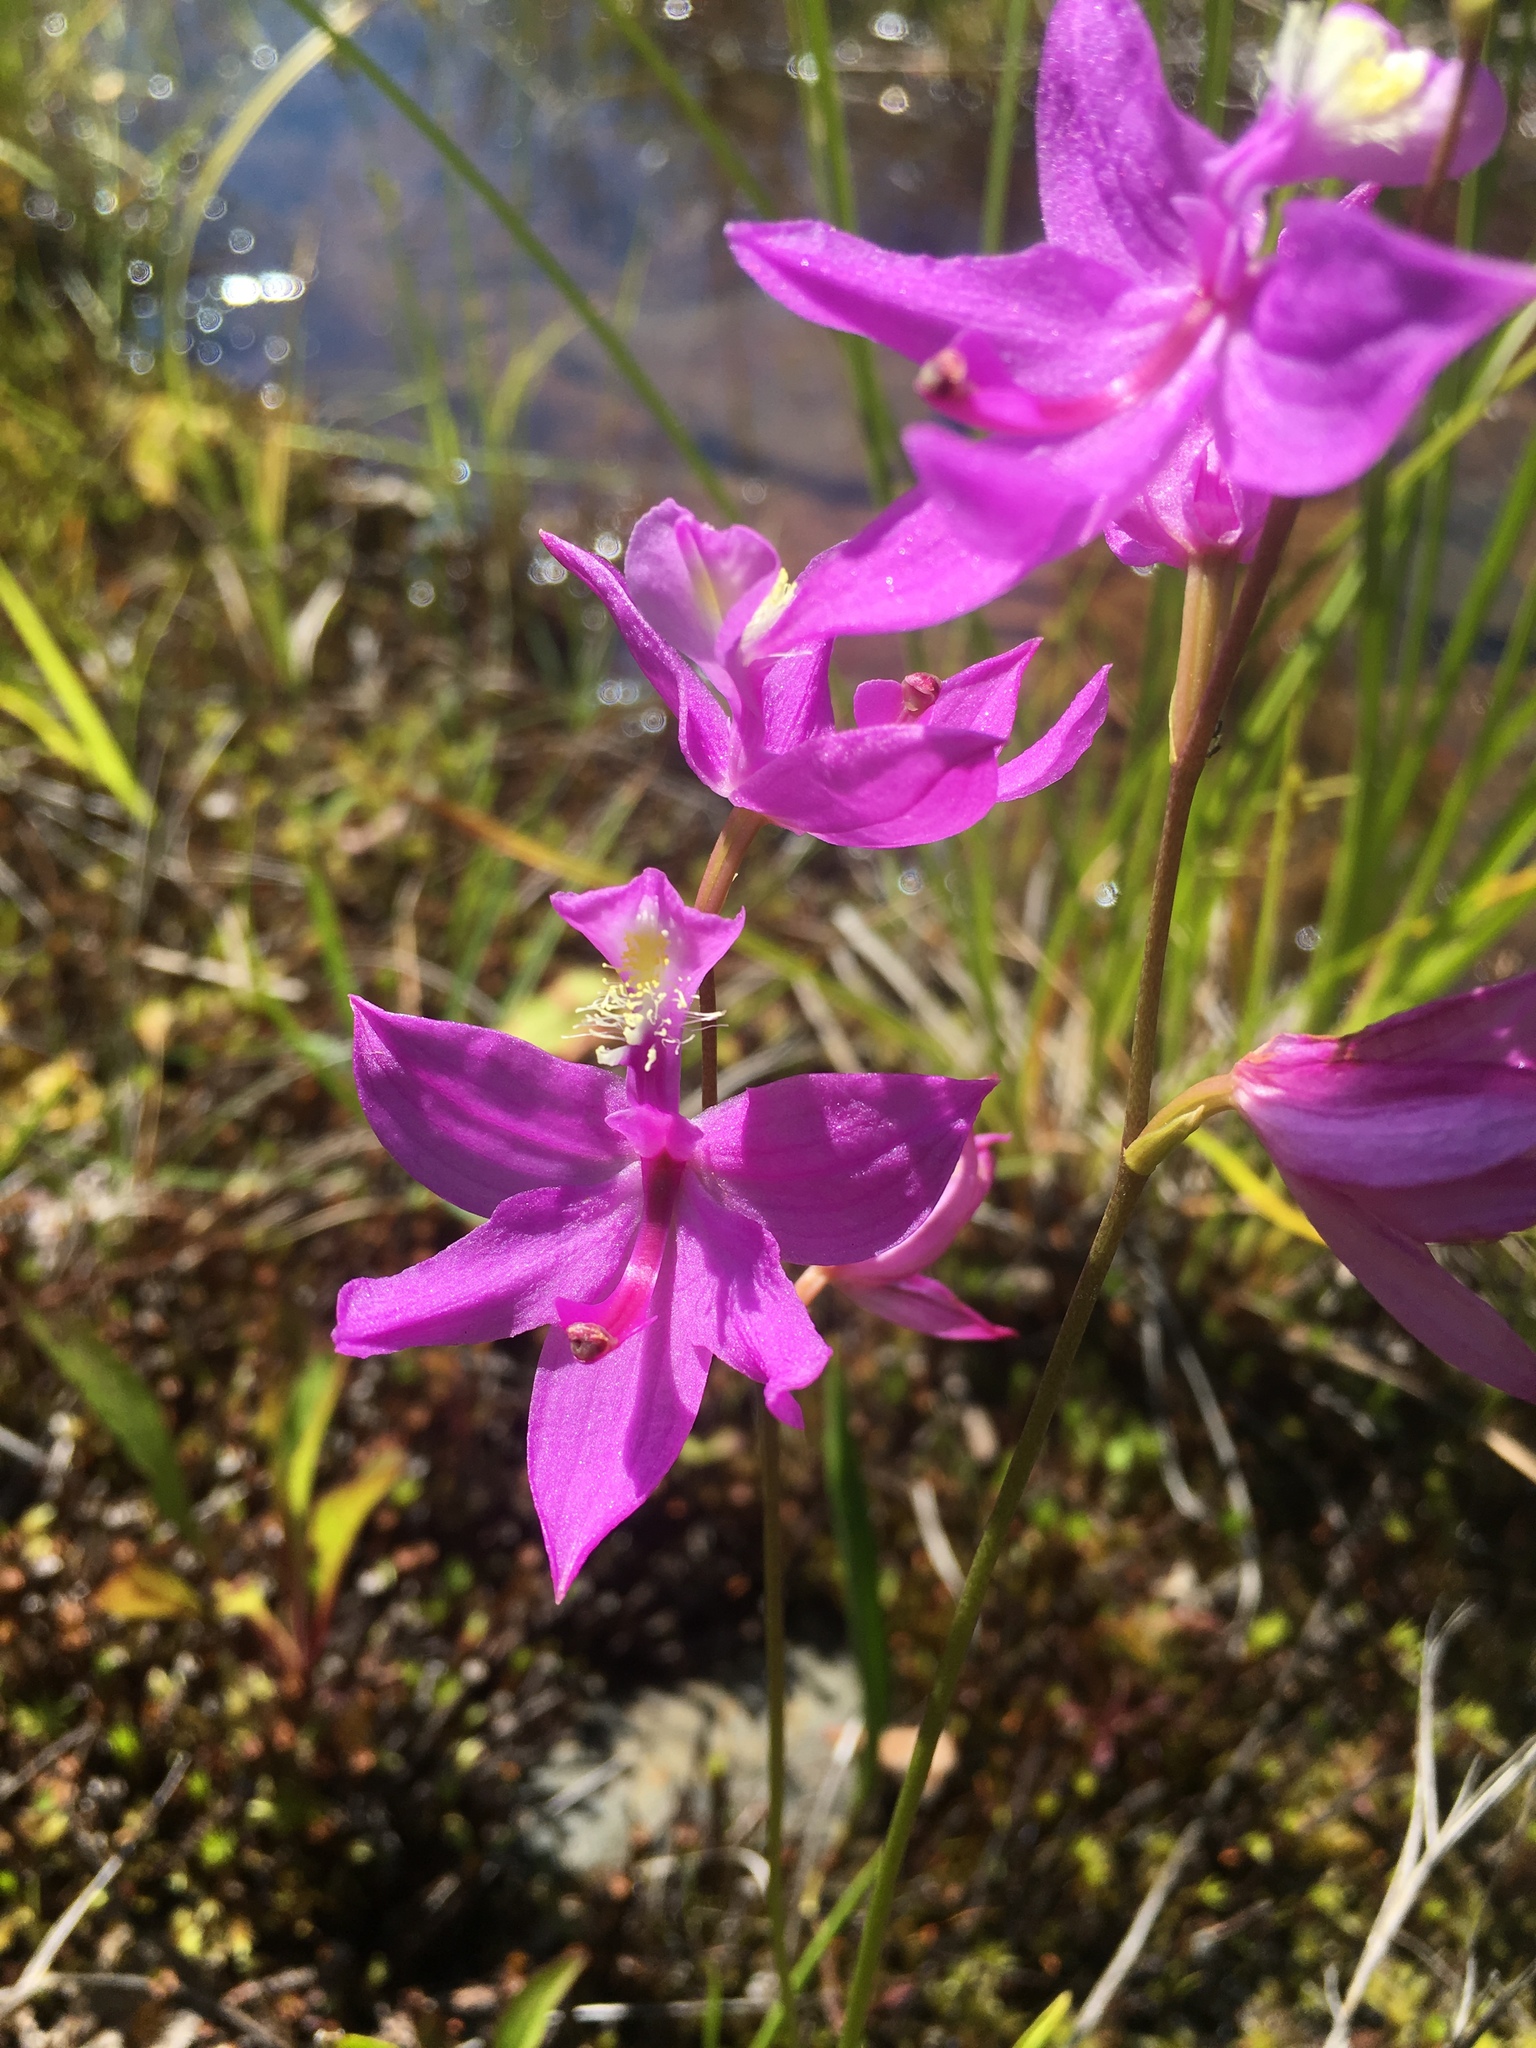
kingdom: Plantae
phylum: Tracheophyta
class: Liliopsida
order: Asparagales
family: Orchidaceae
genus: Calopogon
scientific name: Calopogon tuberosus
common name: Grass-pink
